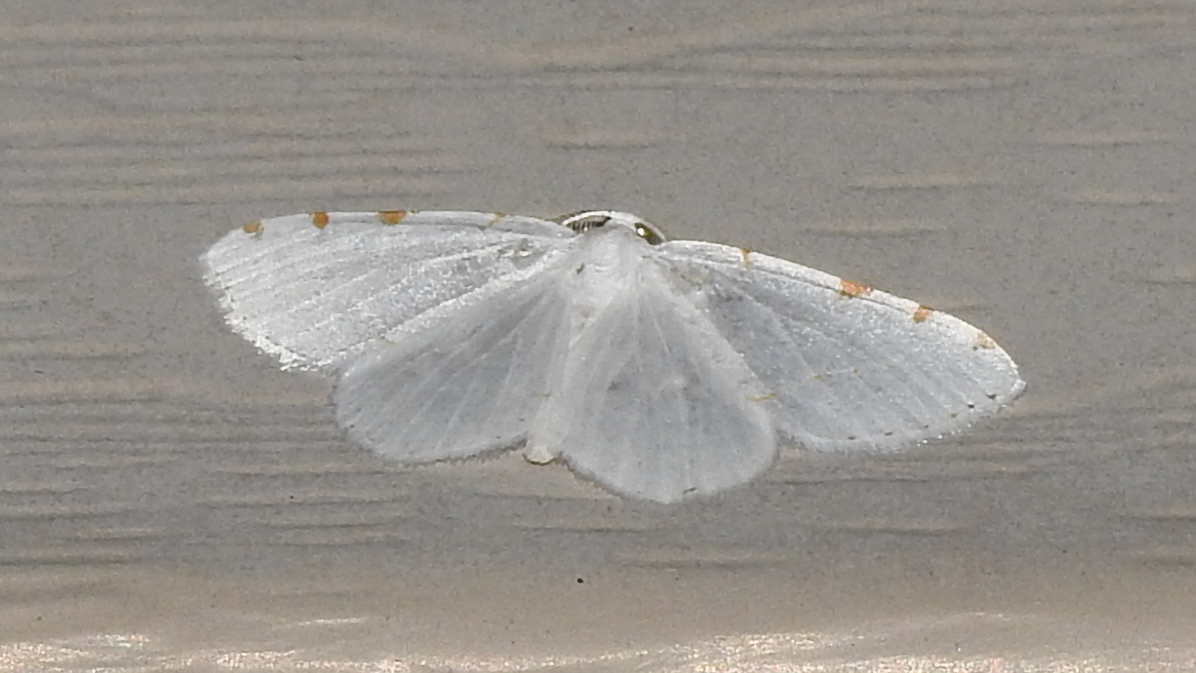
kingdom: Animalia
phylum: Arthropoda
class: Insecta
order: Lepidoptera
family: Geometridae
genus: Macaria
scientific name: Macaria pustularia
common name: Lesser maple spanworm moth
